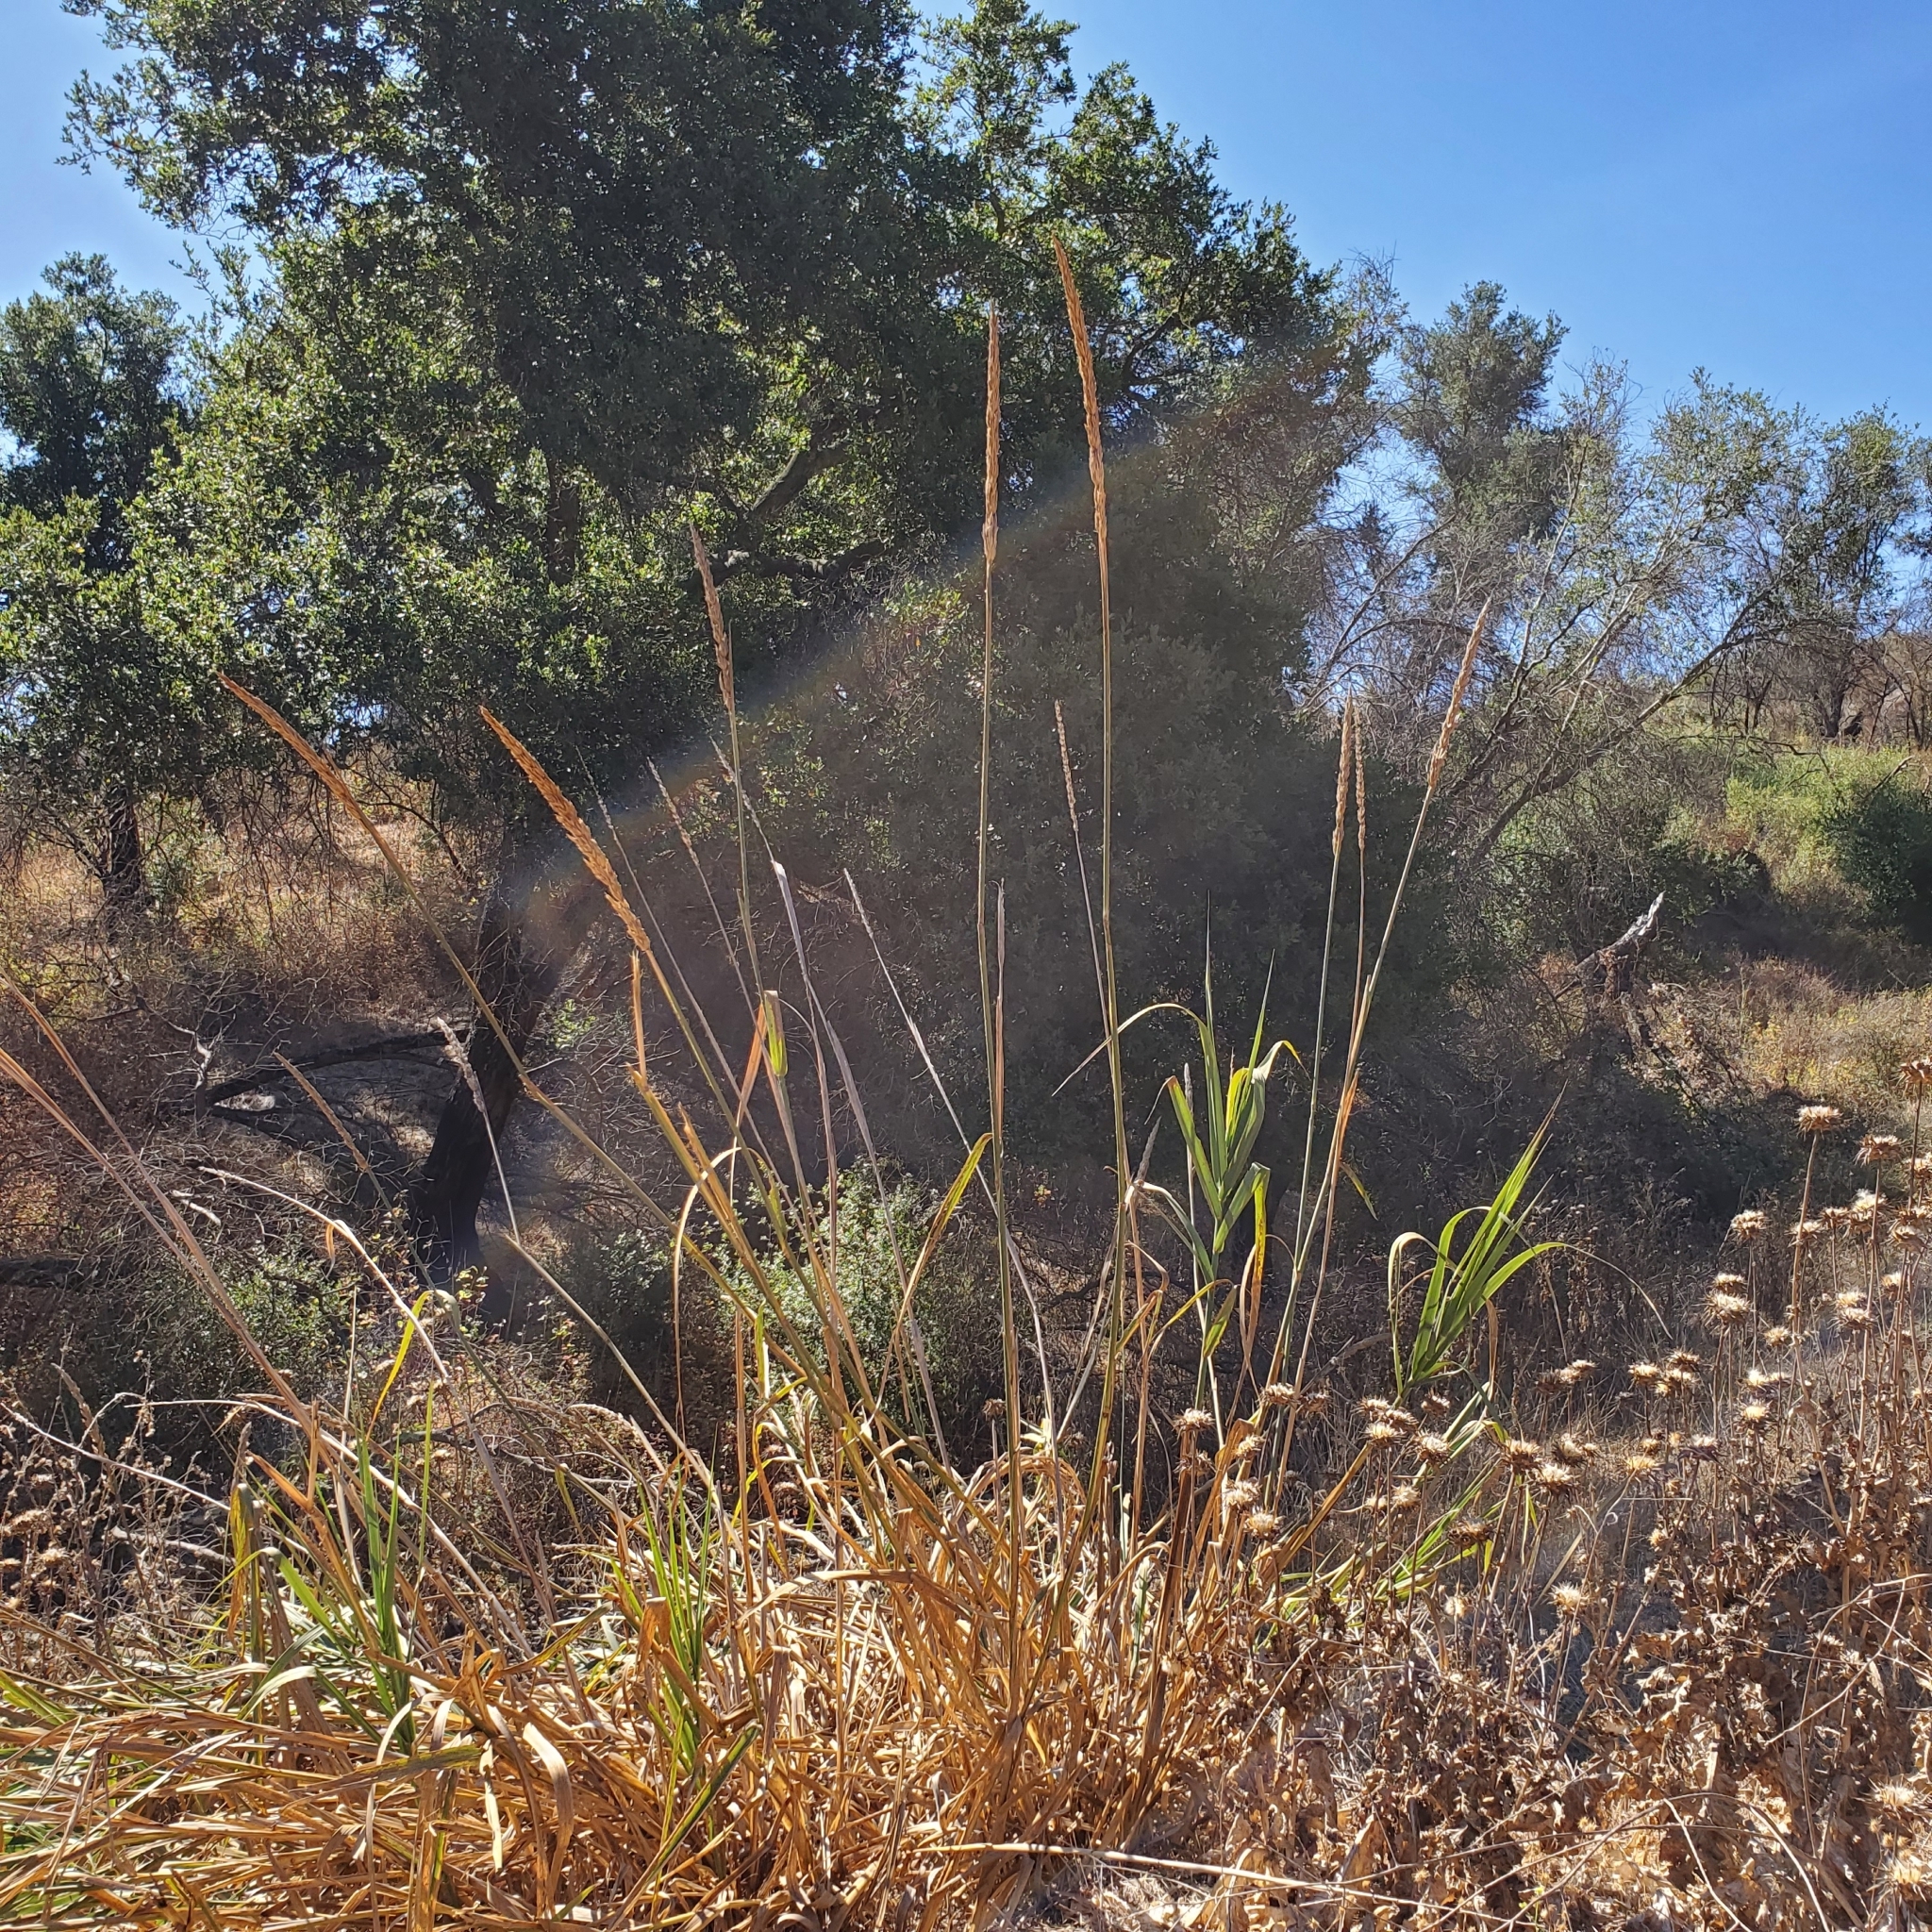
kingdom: Plantae
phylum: Tracheophyta
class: Liliopsida
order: Poales
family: Poaceae
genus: Leymus
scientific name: Leymus condensatus
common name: Giant wild rye
